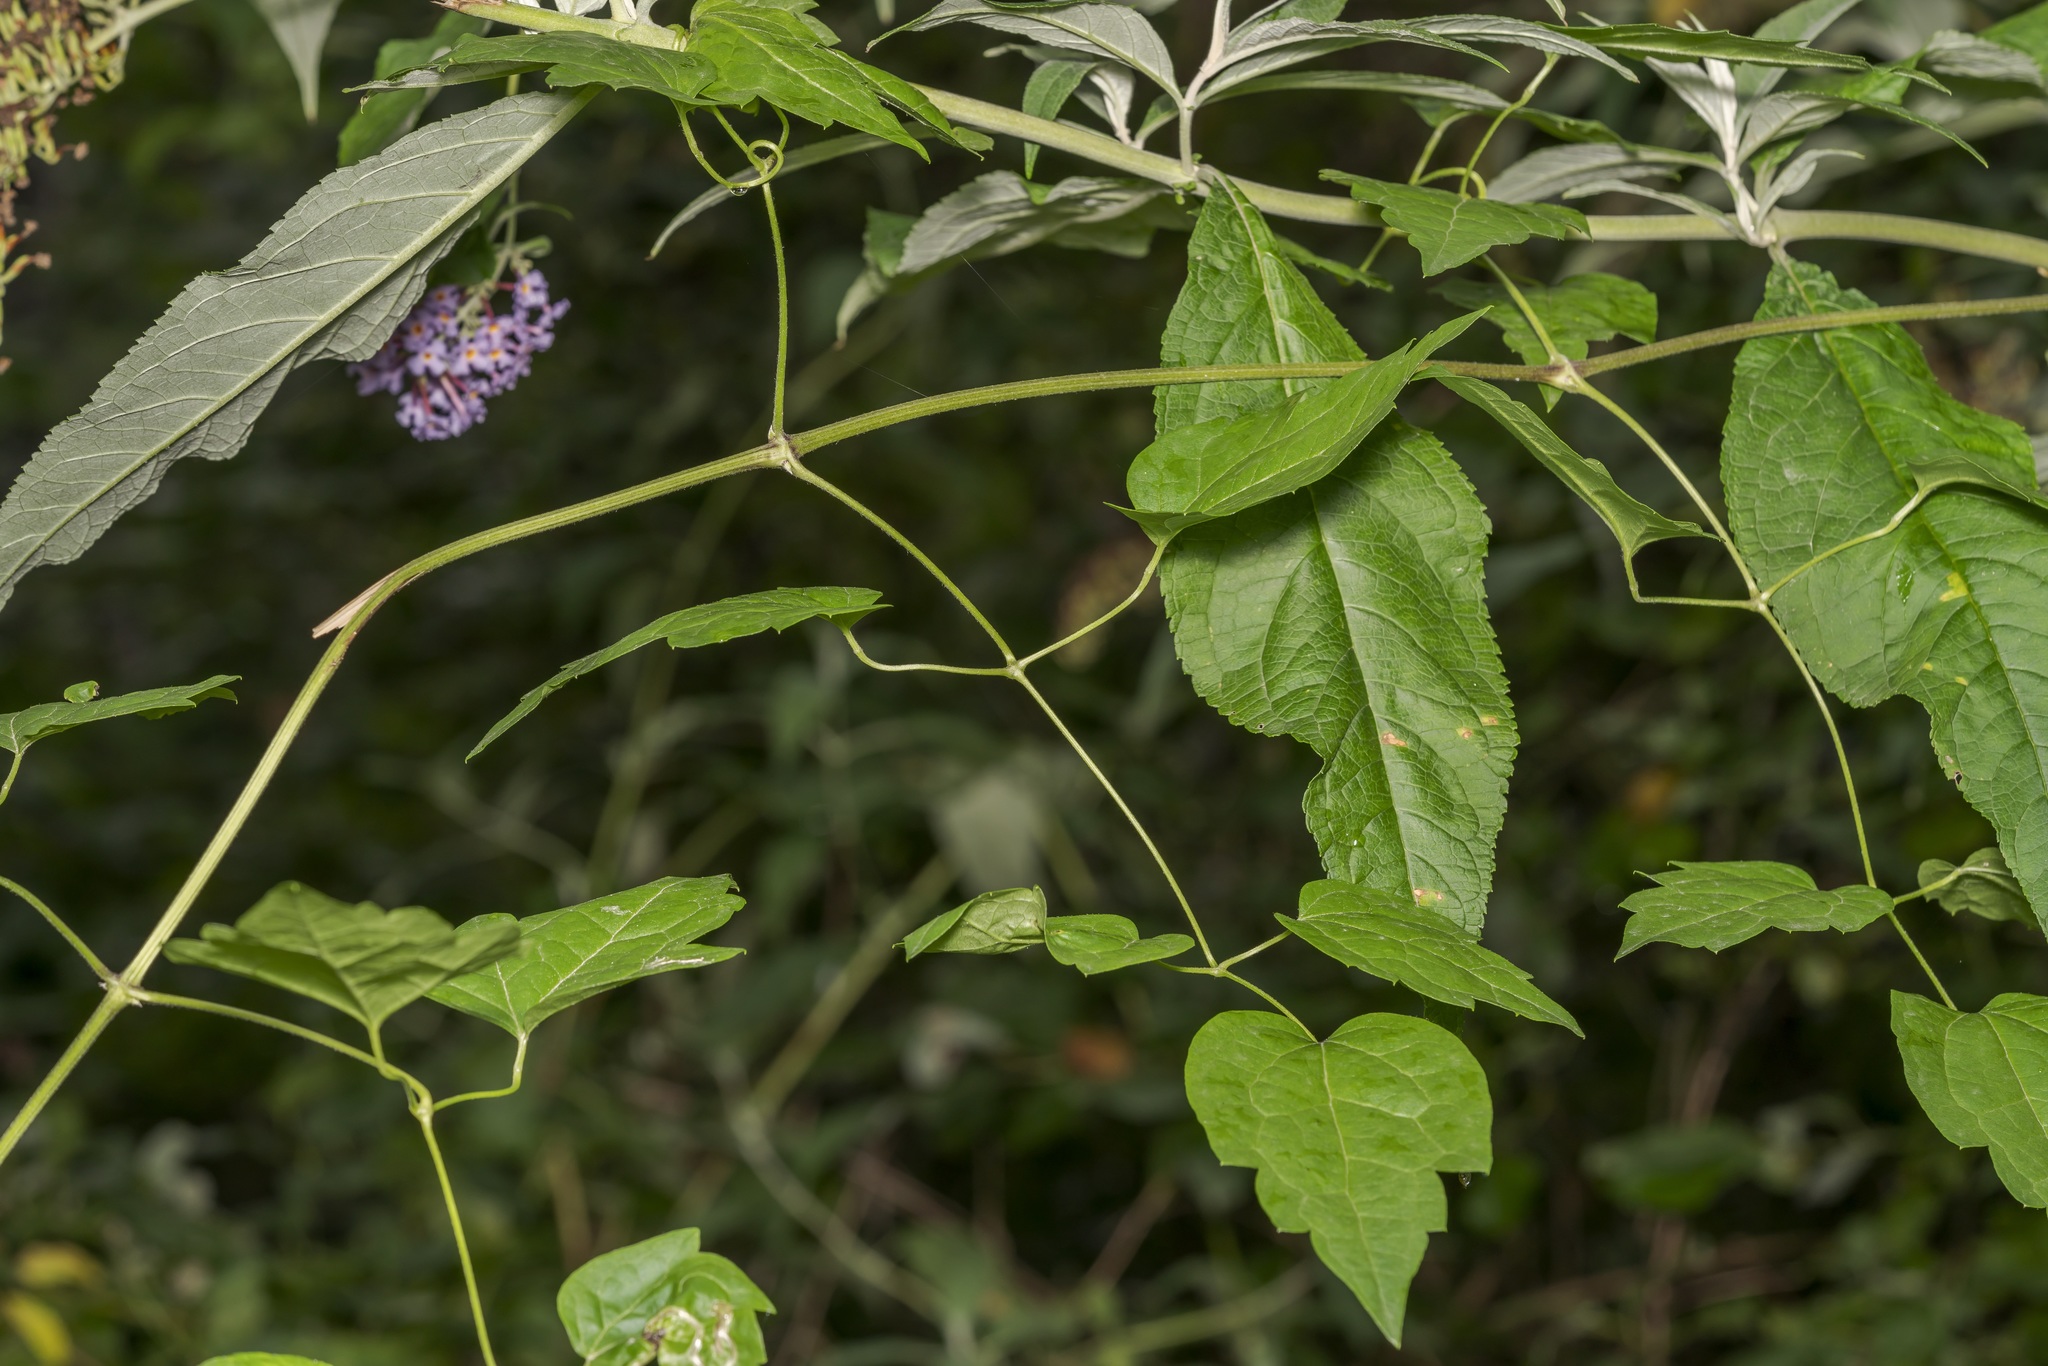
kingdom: Plantae
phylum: Tracheophyta
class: Magnoliopsida
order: Lamiales
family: Scrophulariaceae
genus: Buddleja
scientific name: Buddleja davidii
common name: Butterfly-bush
